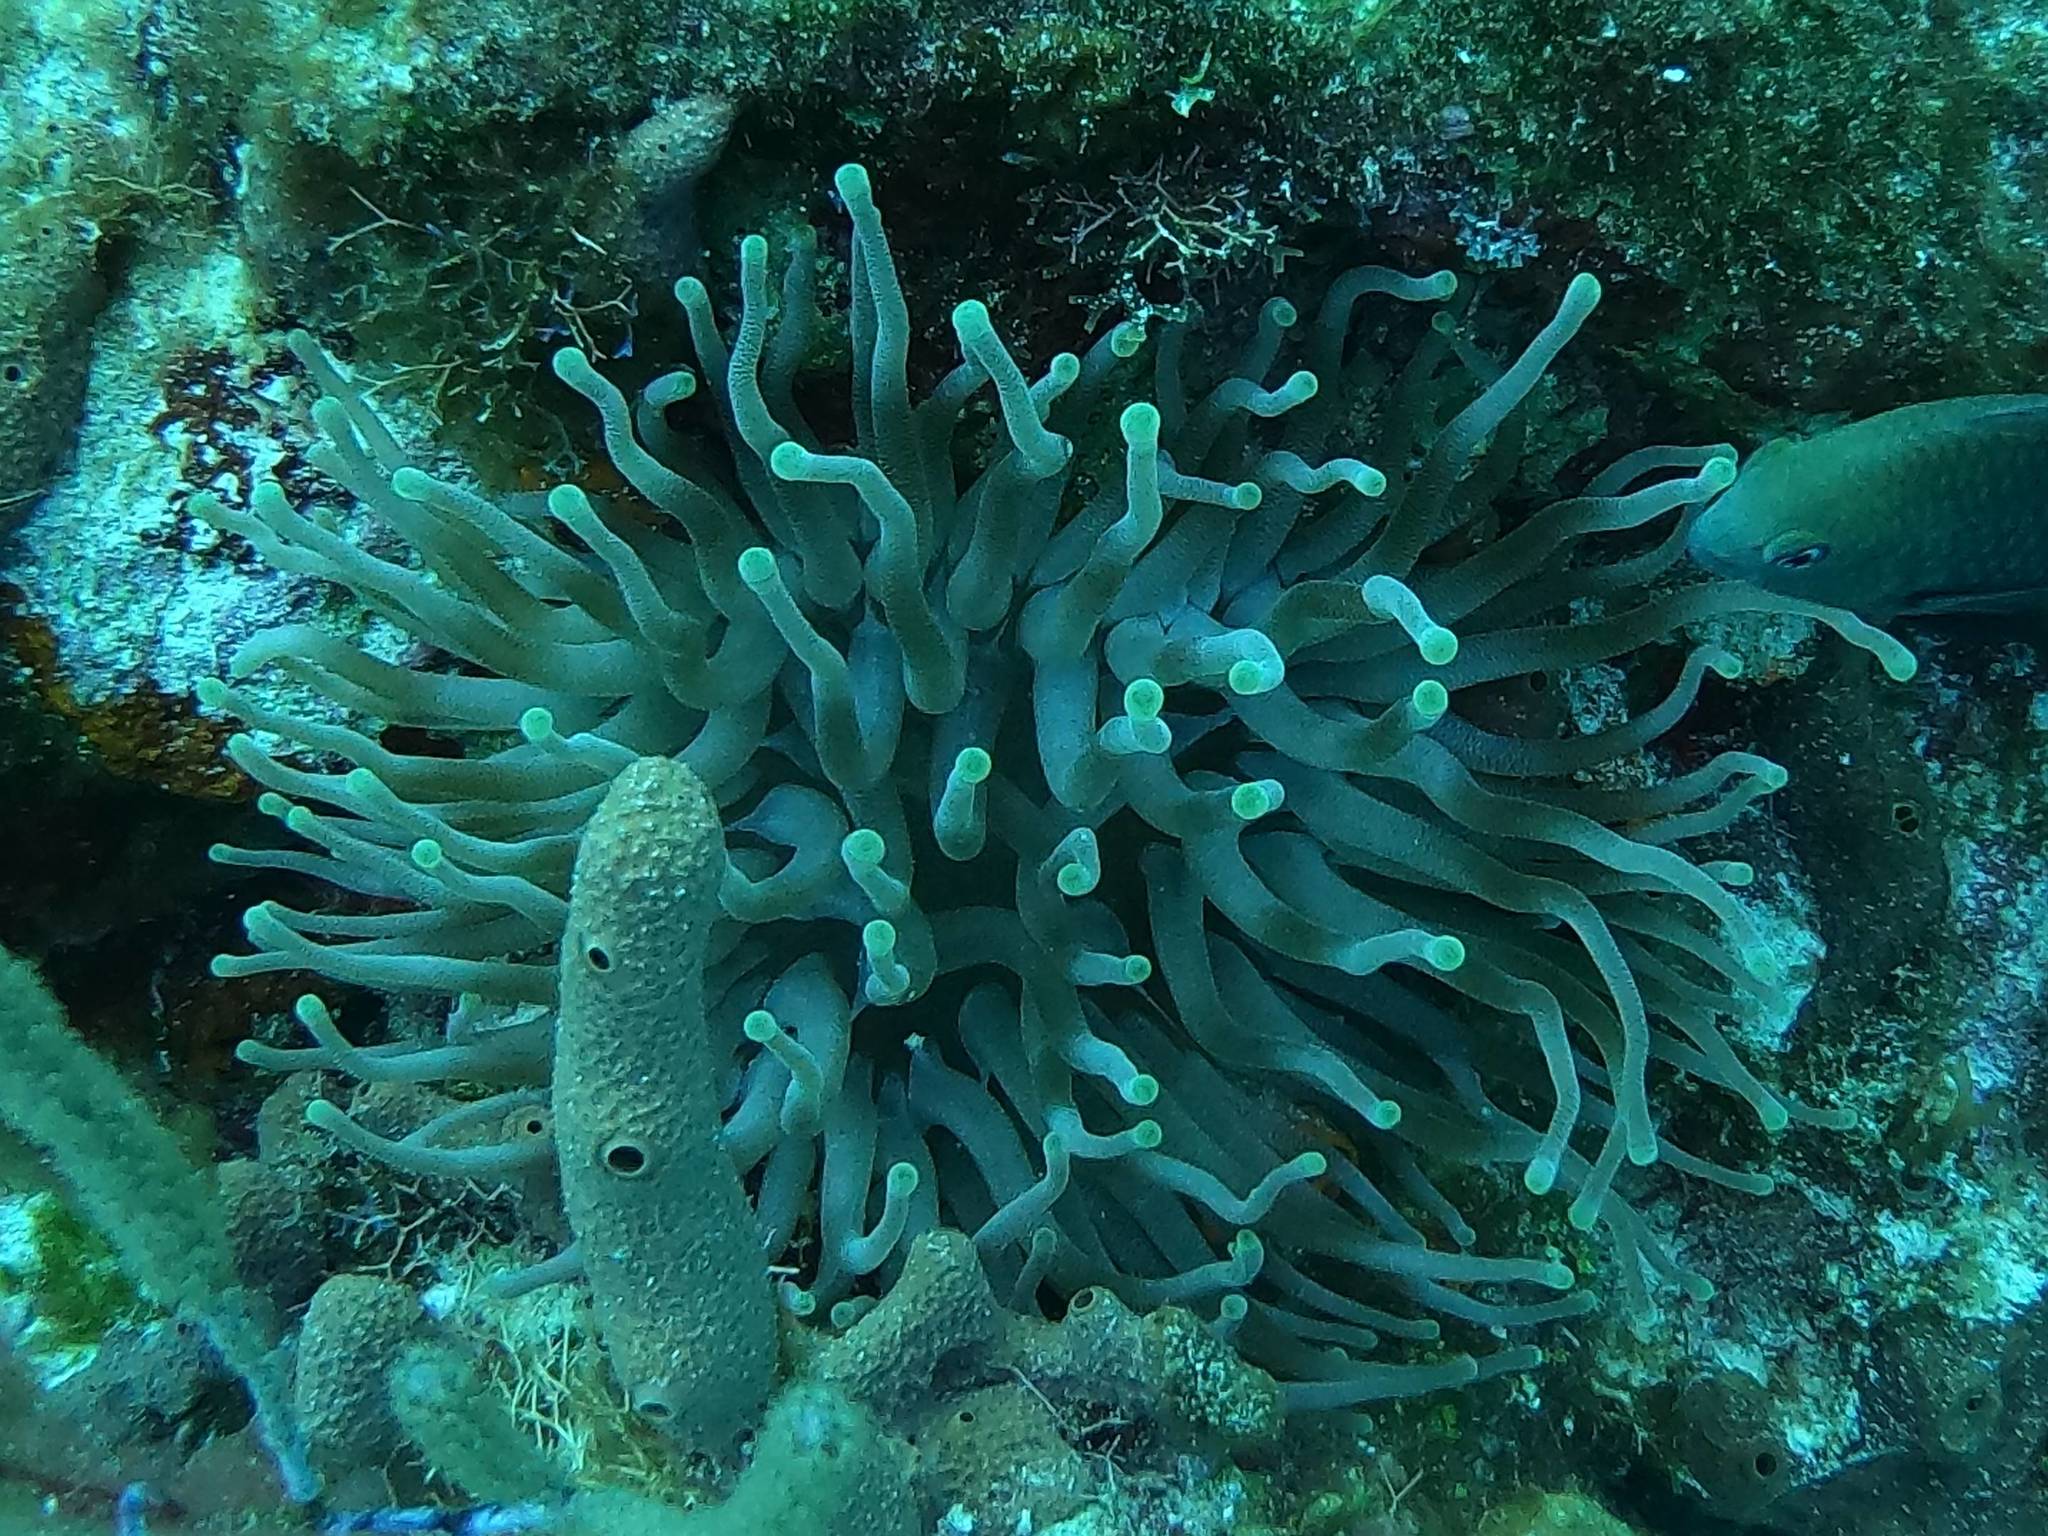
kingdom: Animalia
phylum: Cnidaria
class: Anthozoa
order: Actiniaria
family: Actiniidae
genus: Condylactis
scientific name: Condylactis gigantea
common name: Giant caribbean anemone
